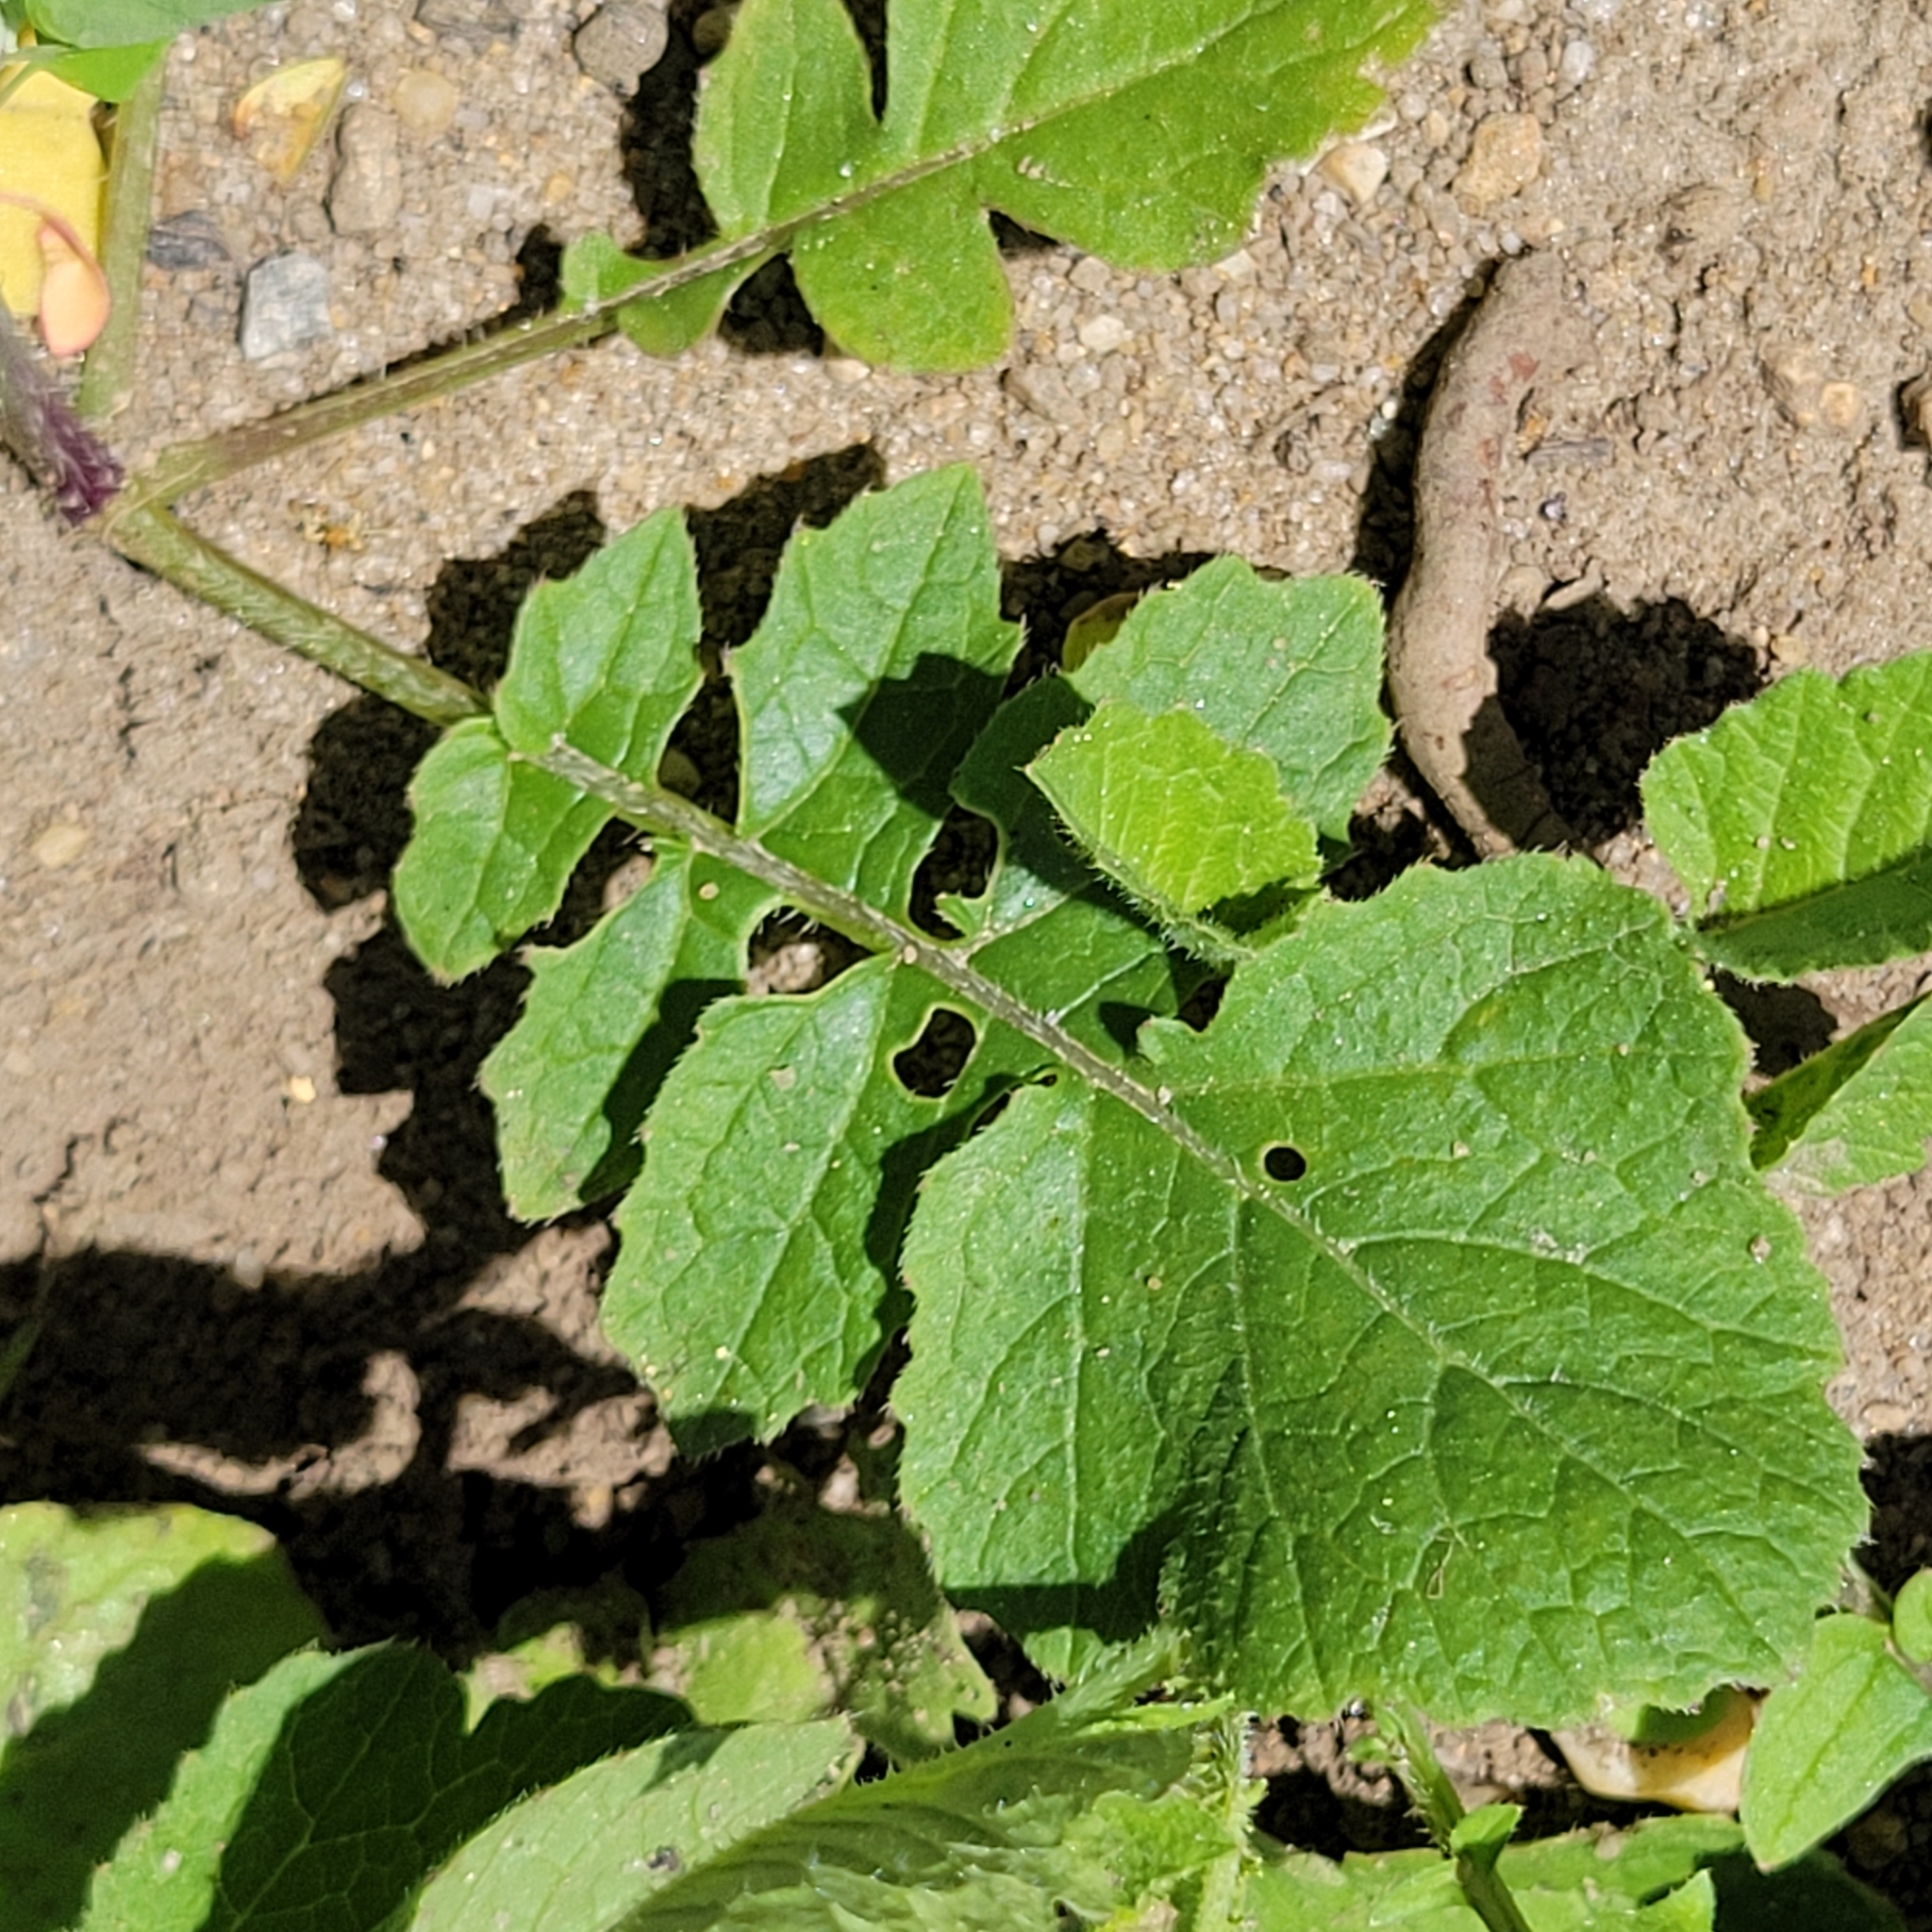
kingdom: Plantae
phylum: Tracheophyta
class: Magnoliopsida
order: Brassicales
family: Brassicaceae
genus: Raphanus
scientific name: Raphanus raphanistrum
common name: Wild radish
